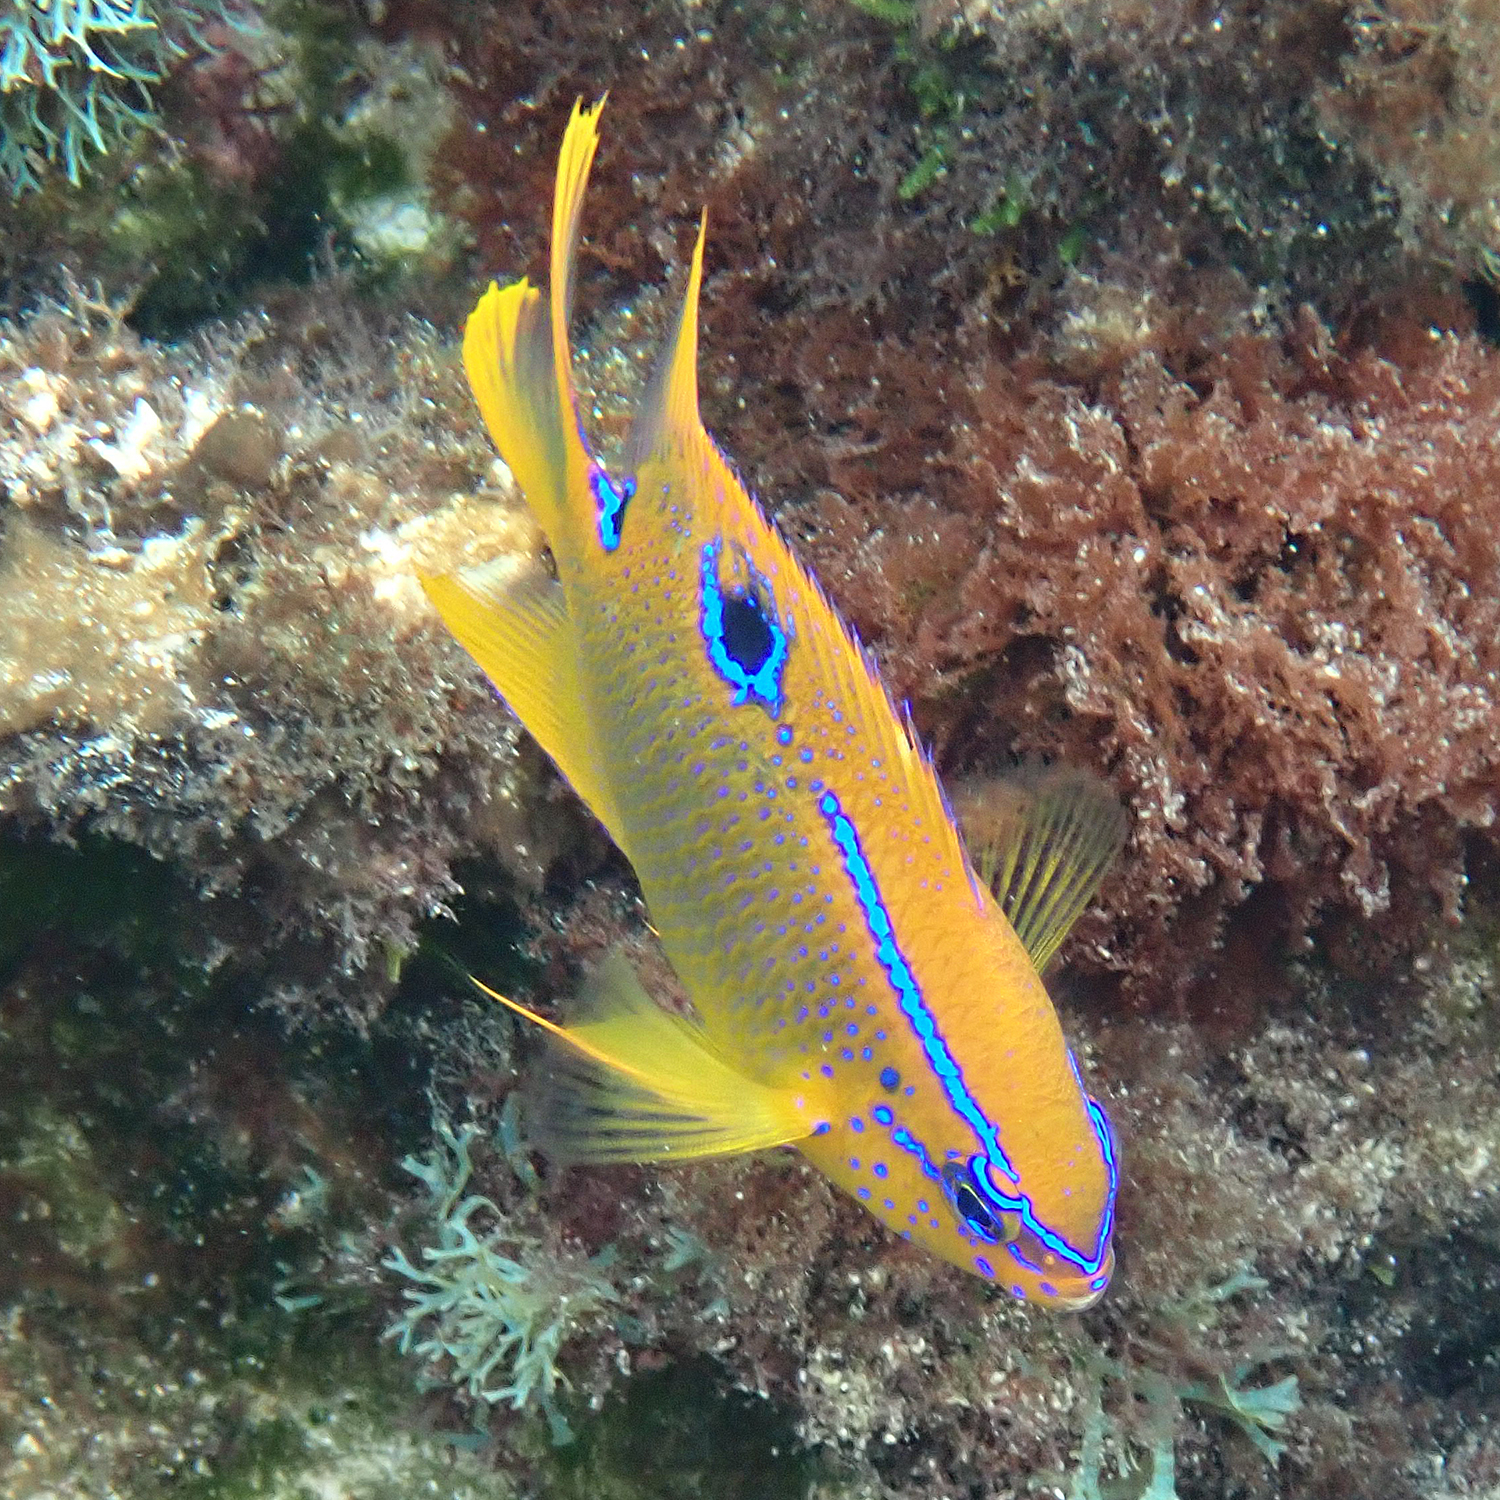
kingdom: Animalia
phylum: Chordata
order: Perciformes
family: Pomacentridae
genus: Neoglyphidodon
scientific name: Neoglyphidodon polyacanthus
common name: Multi-spined damsel
